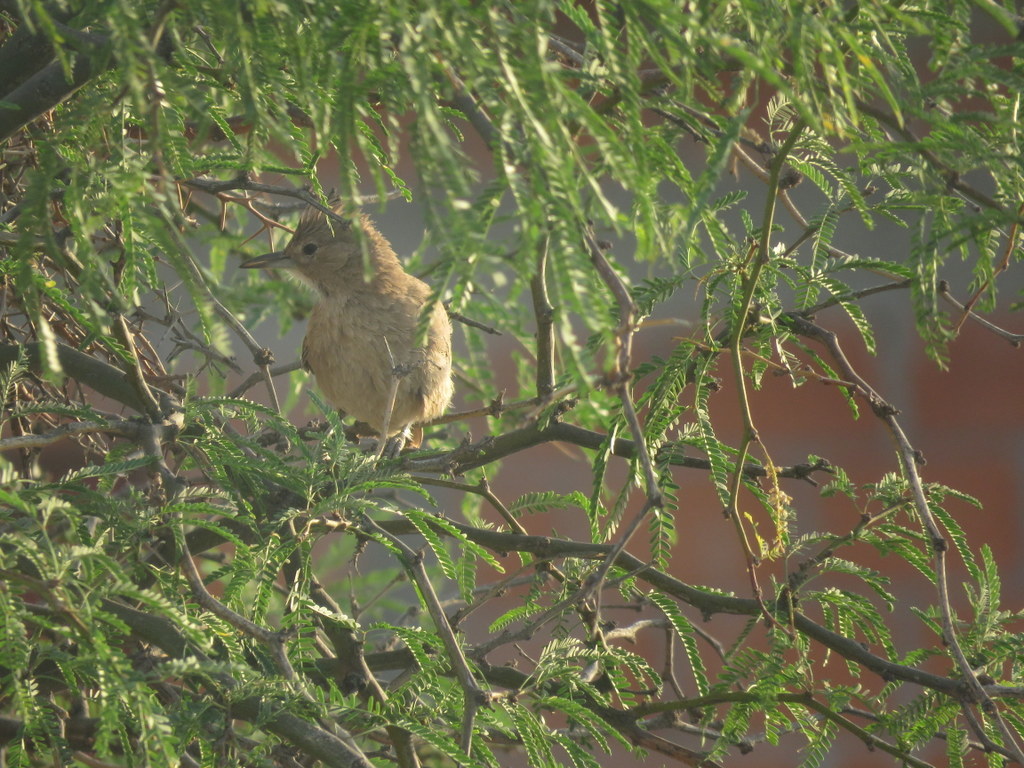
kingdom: Animalia
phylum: Chordata
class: Aves
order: Passeriformes
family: Furnariidae
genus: Pseudoseisura
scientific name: Pseudoseisura gutturalis
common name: White-throated cacholote
